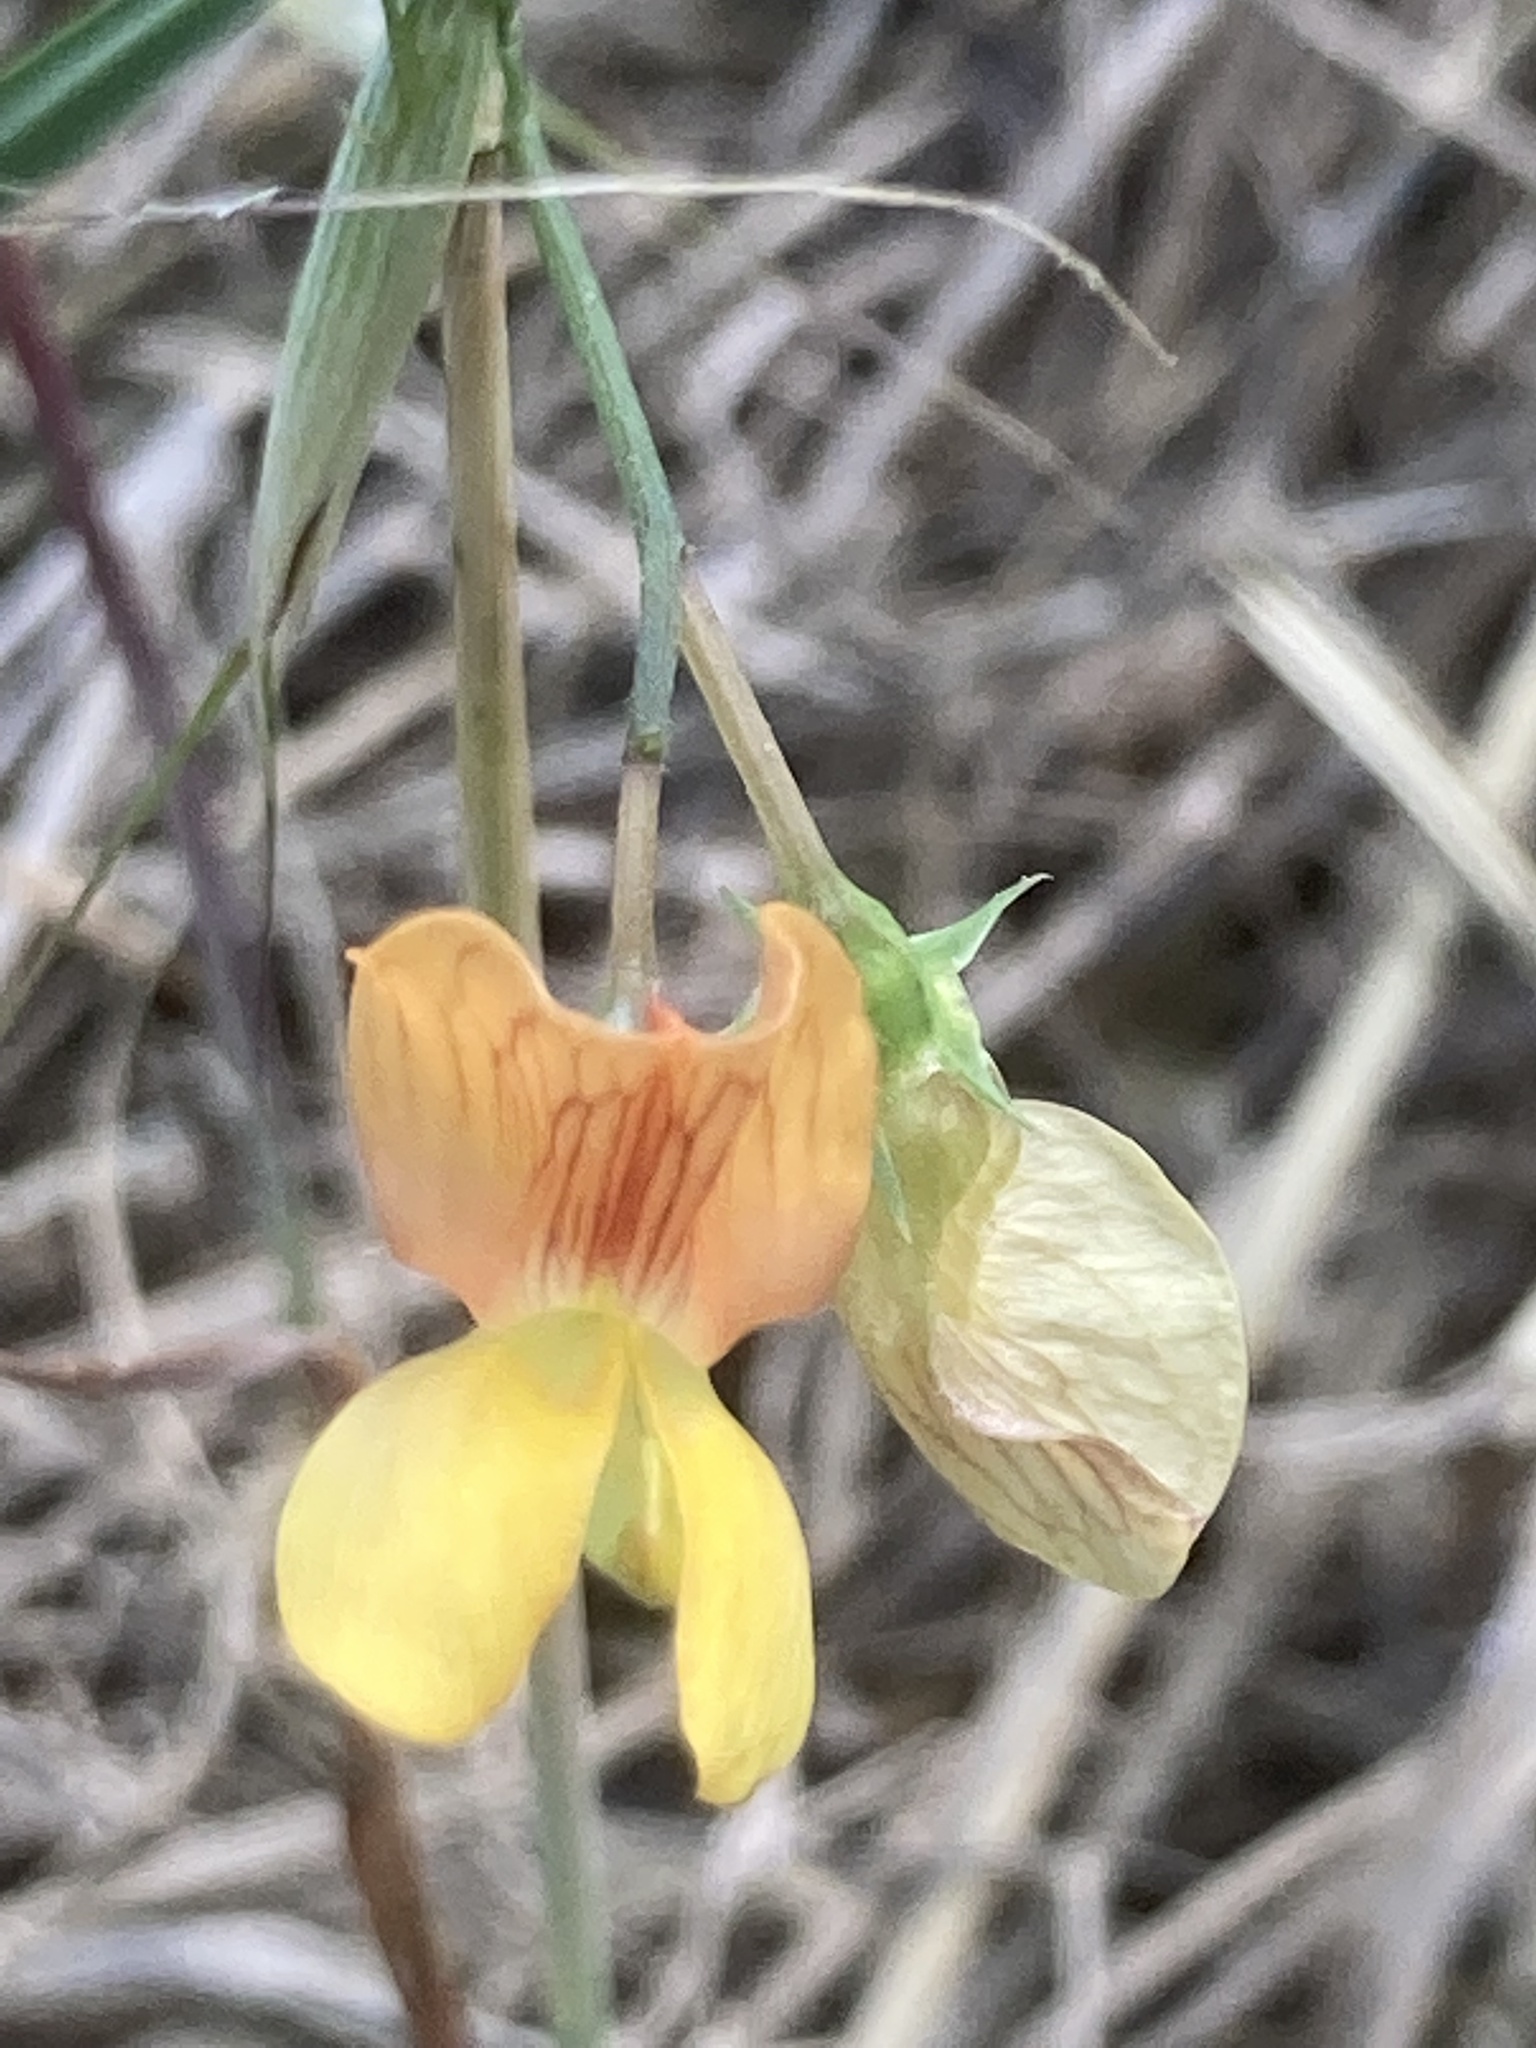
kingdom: Plantae
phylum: Tracheophyta
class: Magnoliopsida
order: Fabales
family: Fabaceae
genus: Lathyrus
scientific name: Lathyrus annuus
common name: Fodder pea
